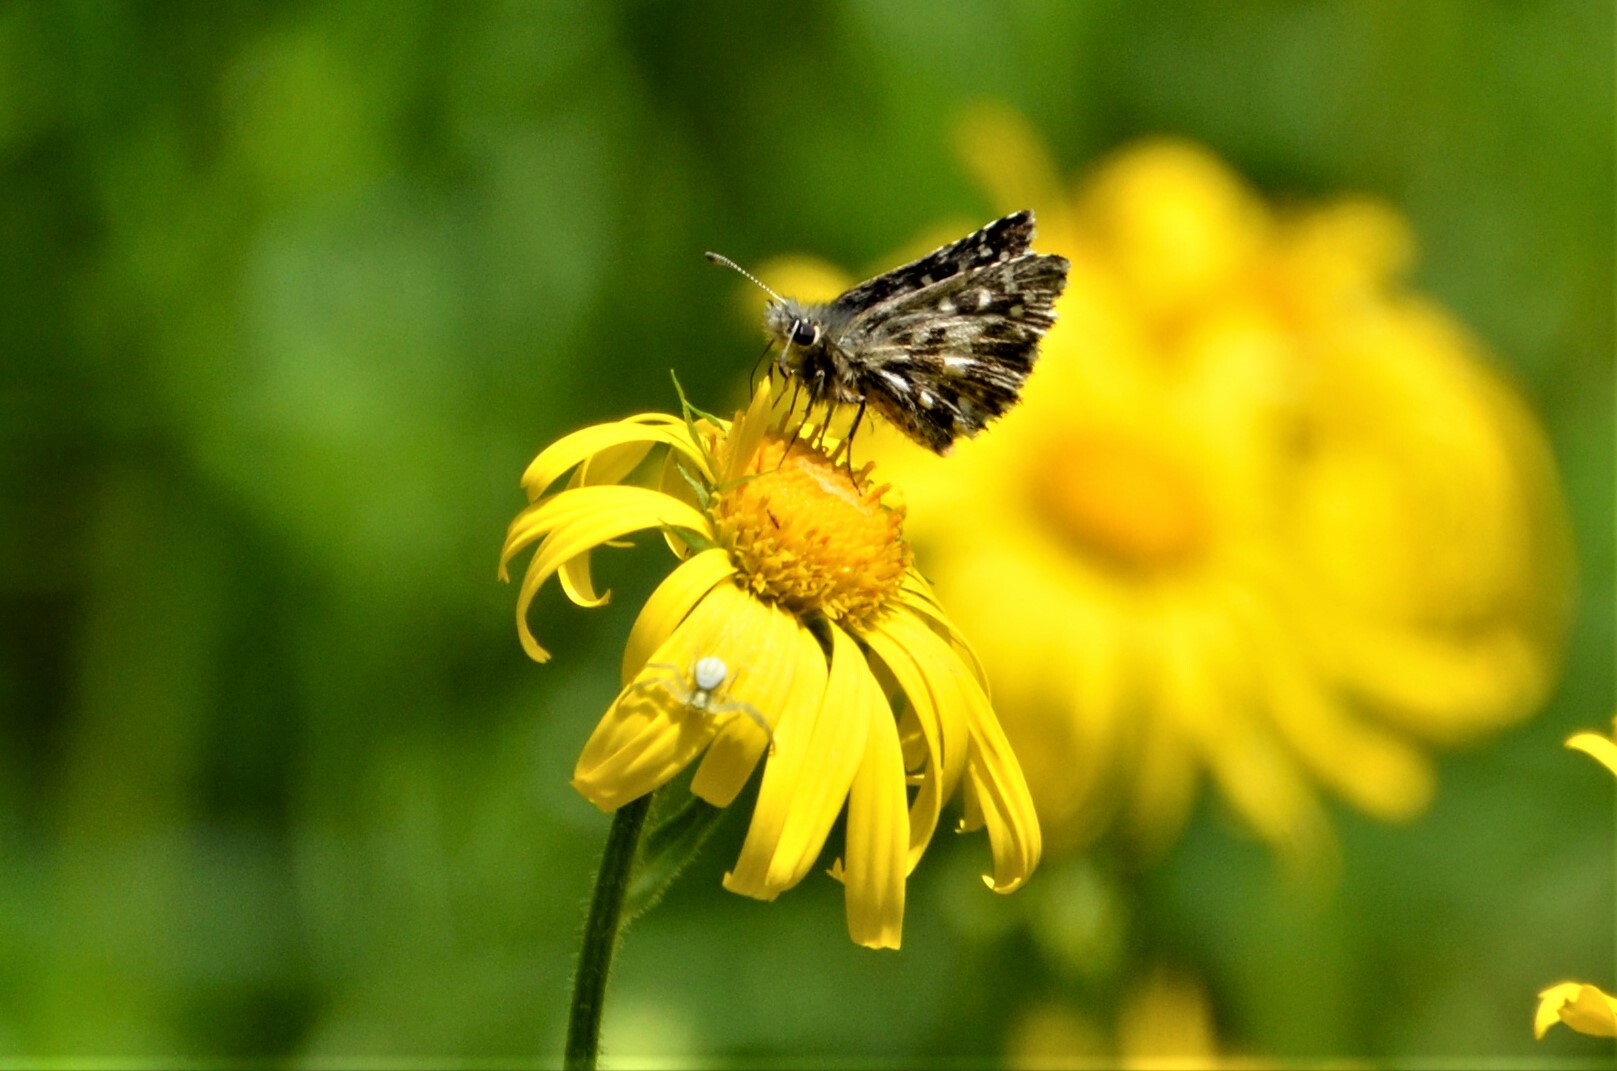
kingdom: Animalia
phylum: Arthropoda
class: Insecta
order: Lepidoptera
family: Hesperiidae
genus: Pyrgus
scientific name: Pyrgus malvae
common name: Grizzled skipper
